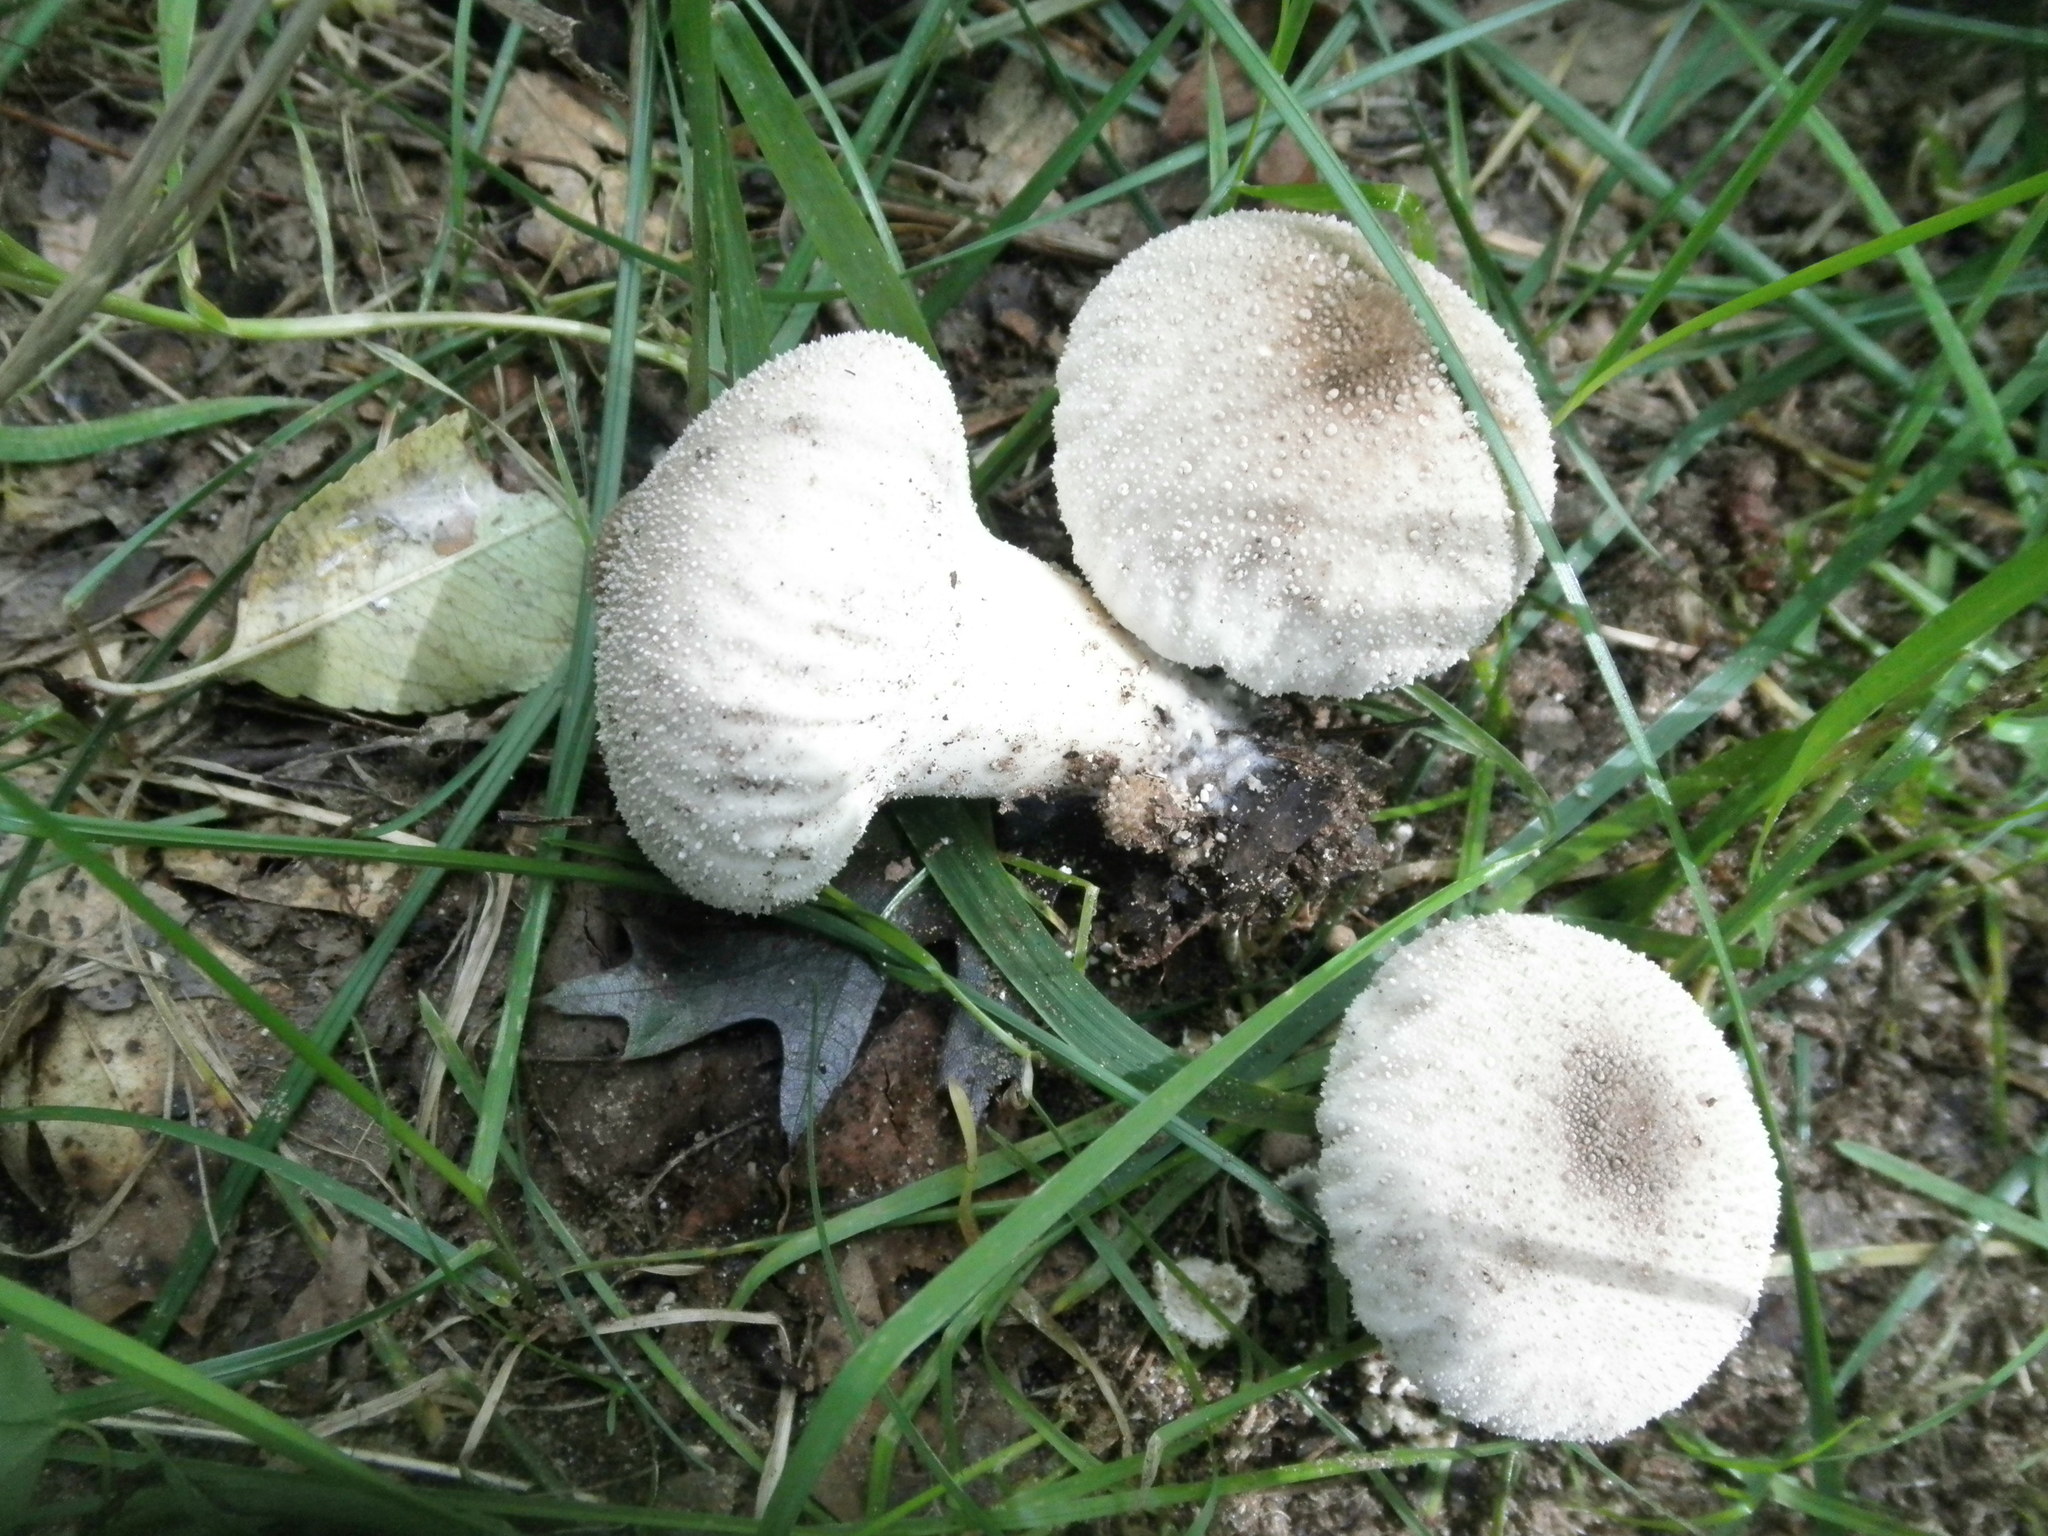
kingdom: Fungi
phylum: Basidiomycota
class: Agaricomycetes
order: Agaricales
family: Lycoperdaceae
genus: Lycoperdon
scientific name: Lycoperdon perlatum
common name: Common puffball
